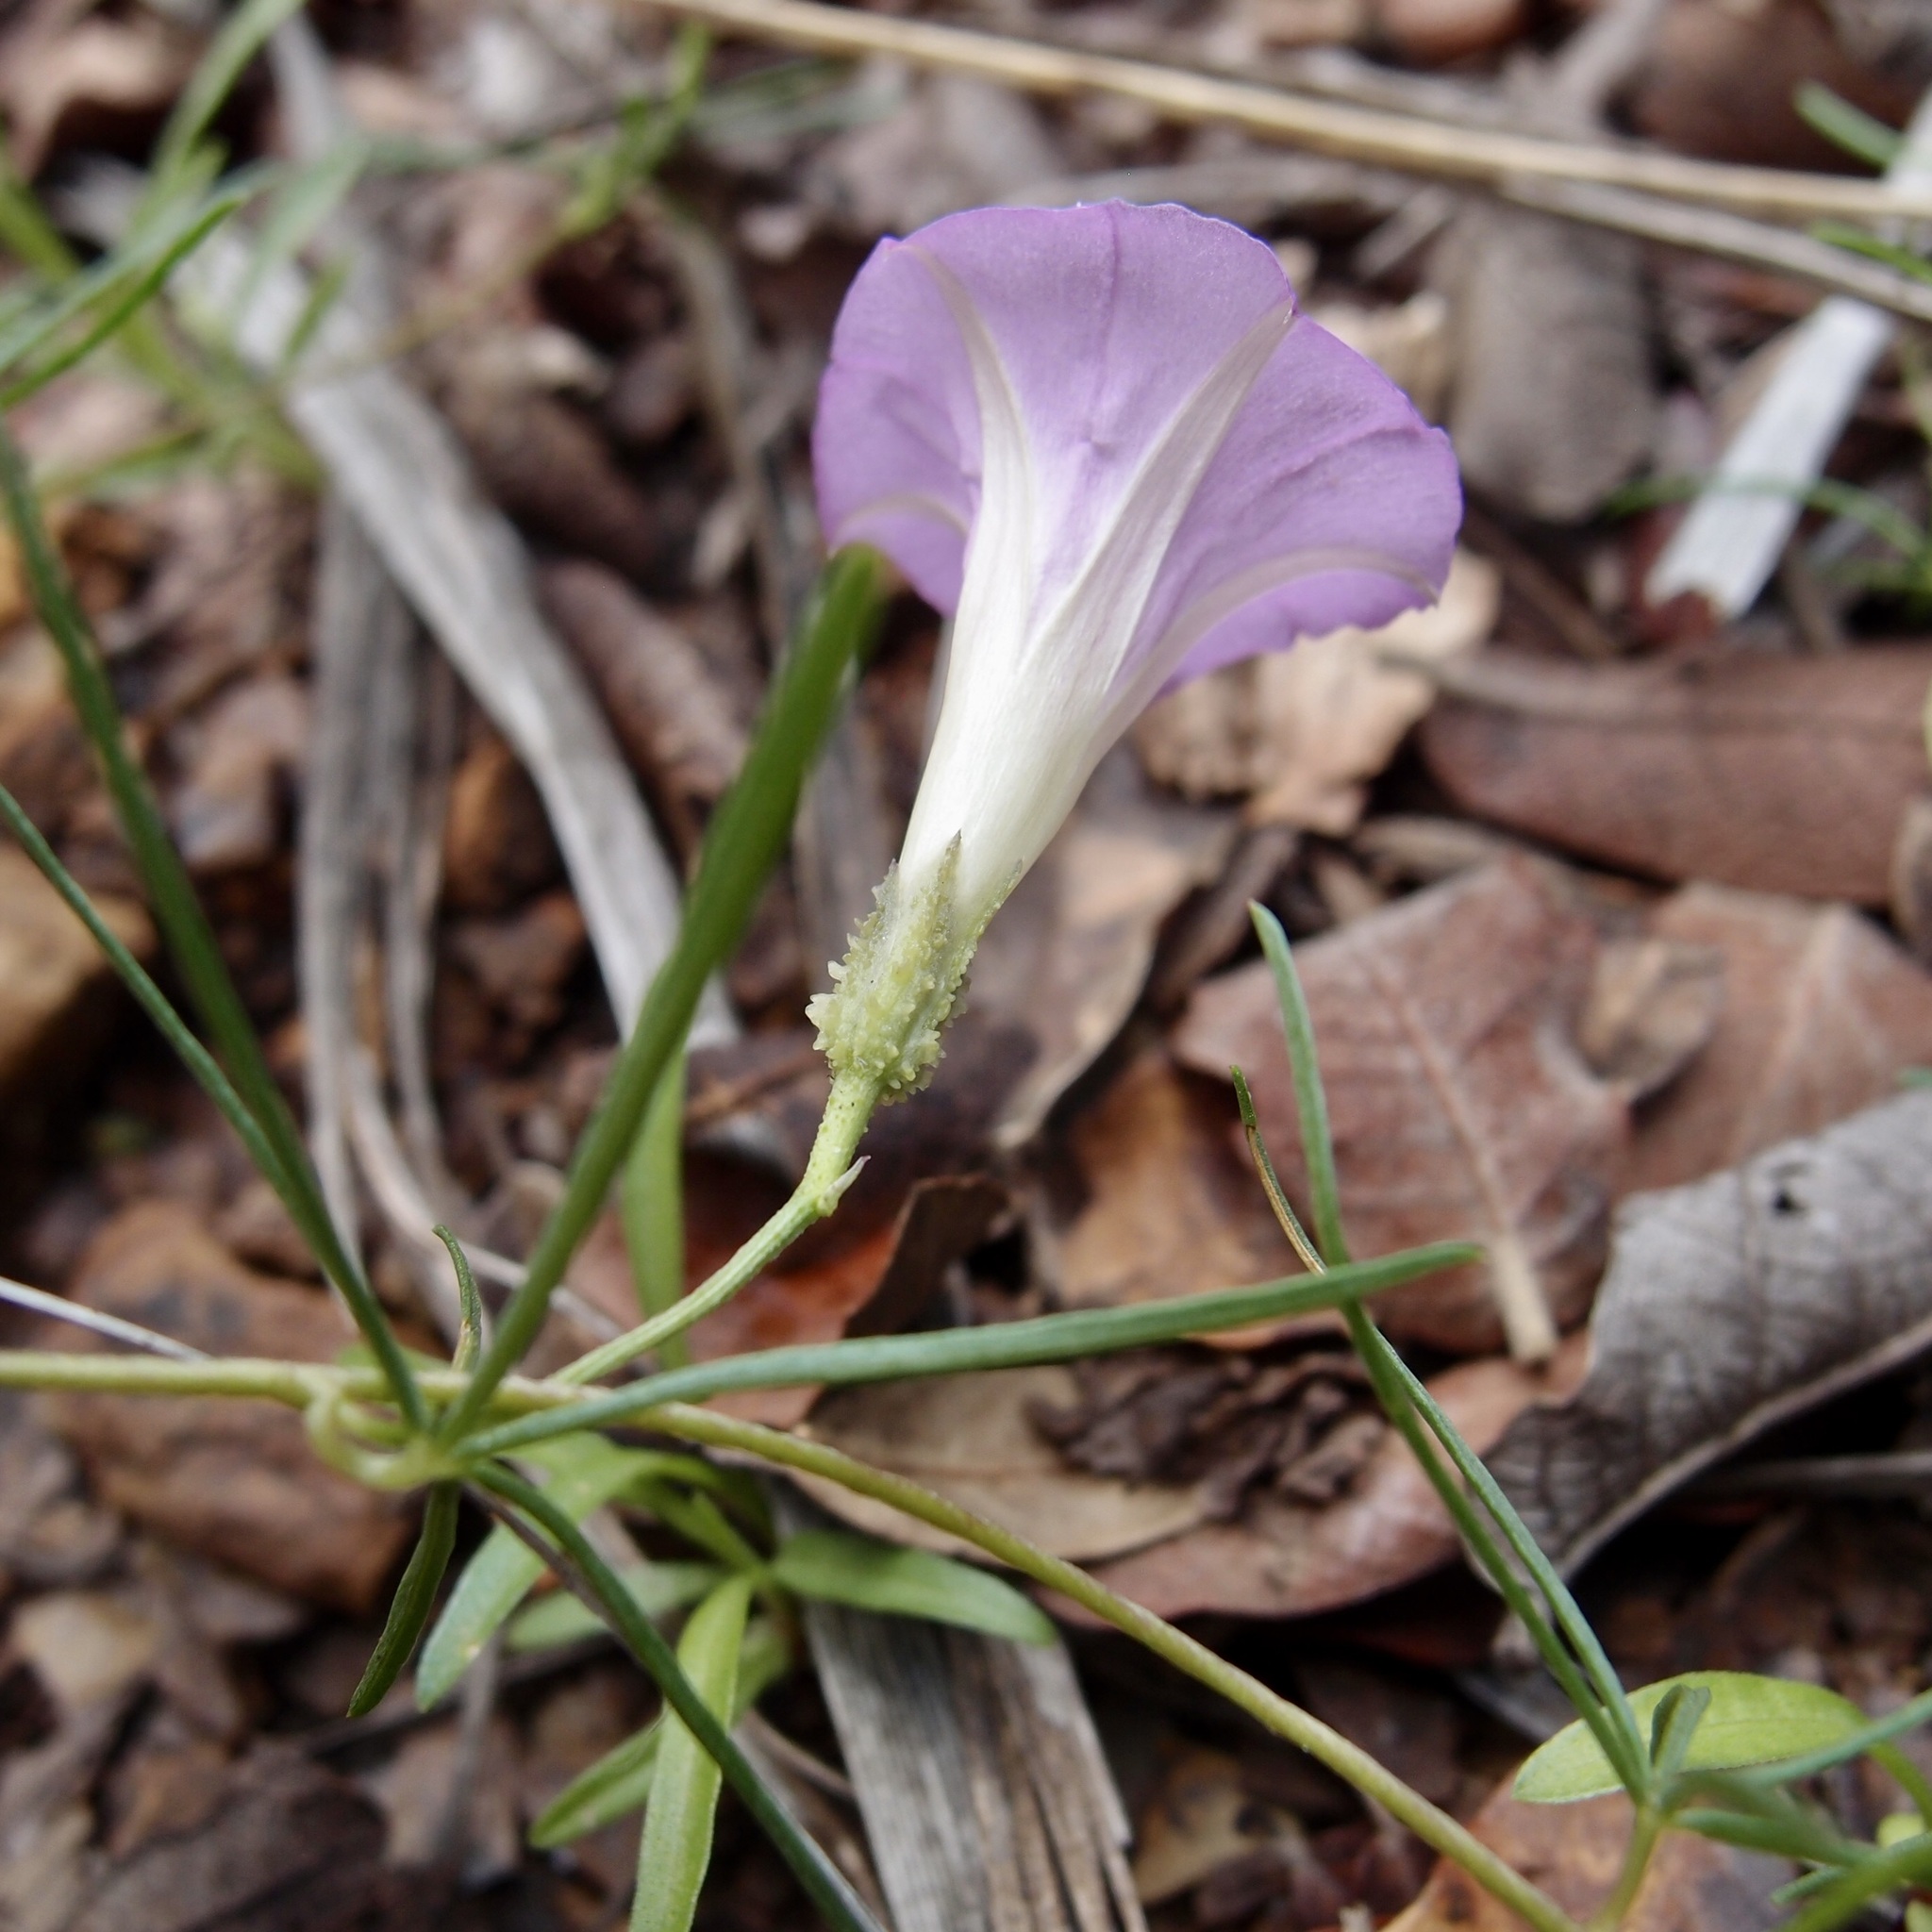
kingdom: Plantae
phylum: Tracheophyta
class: Magnoliopsida
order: Solanales
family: Convolvulaceae
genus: Ipomoea
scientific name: Ipomoea plummerae
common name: Plummer's morning-glory
